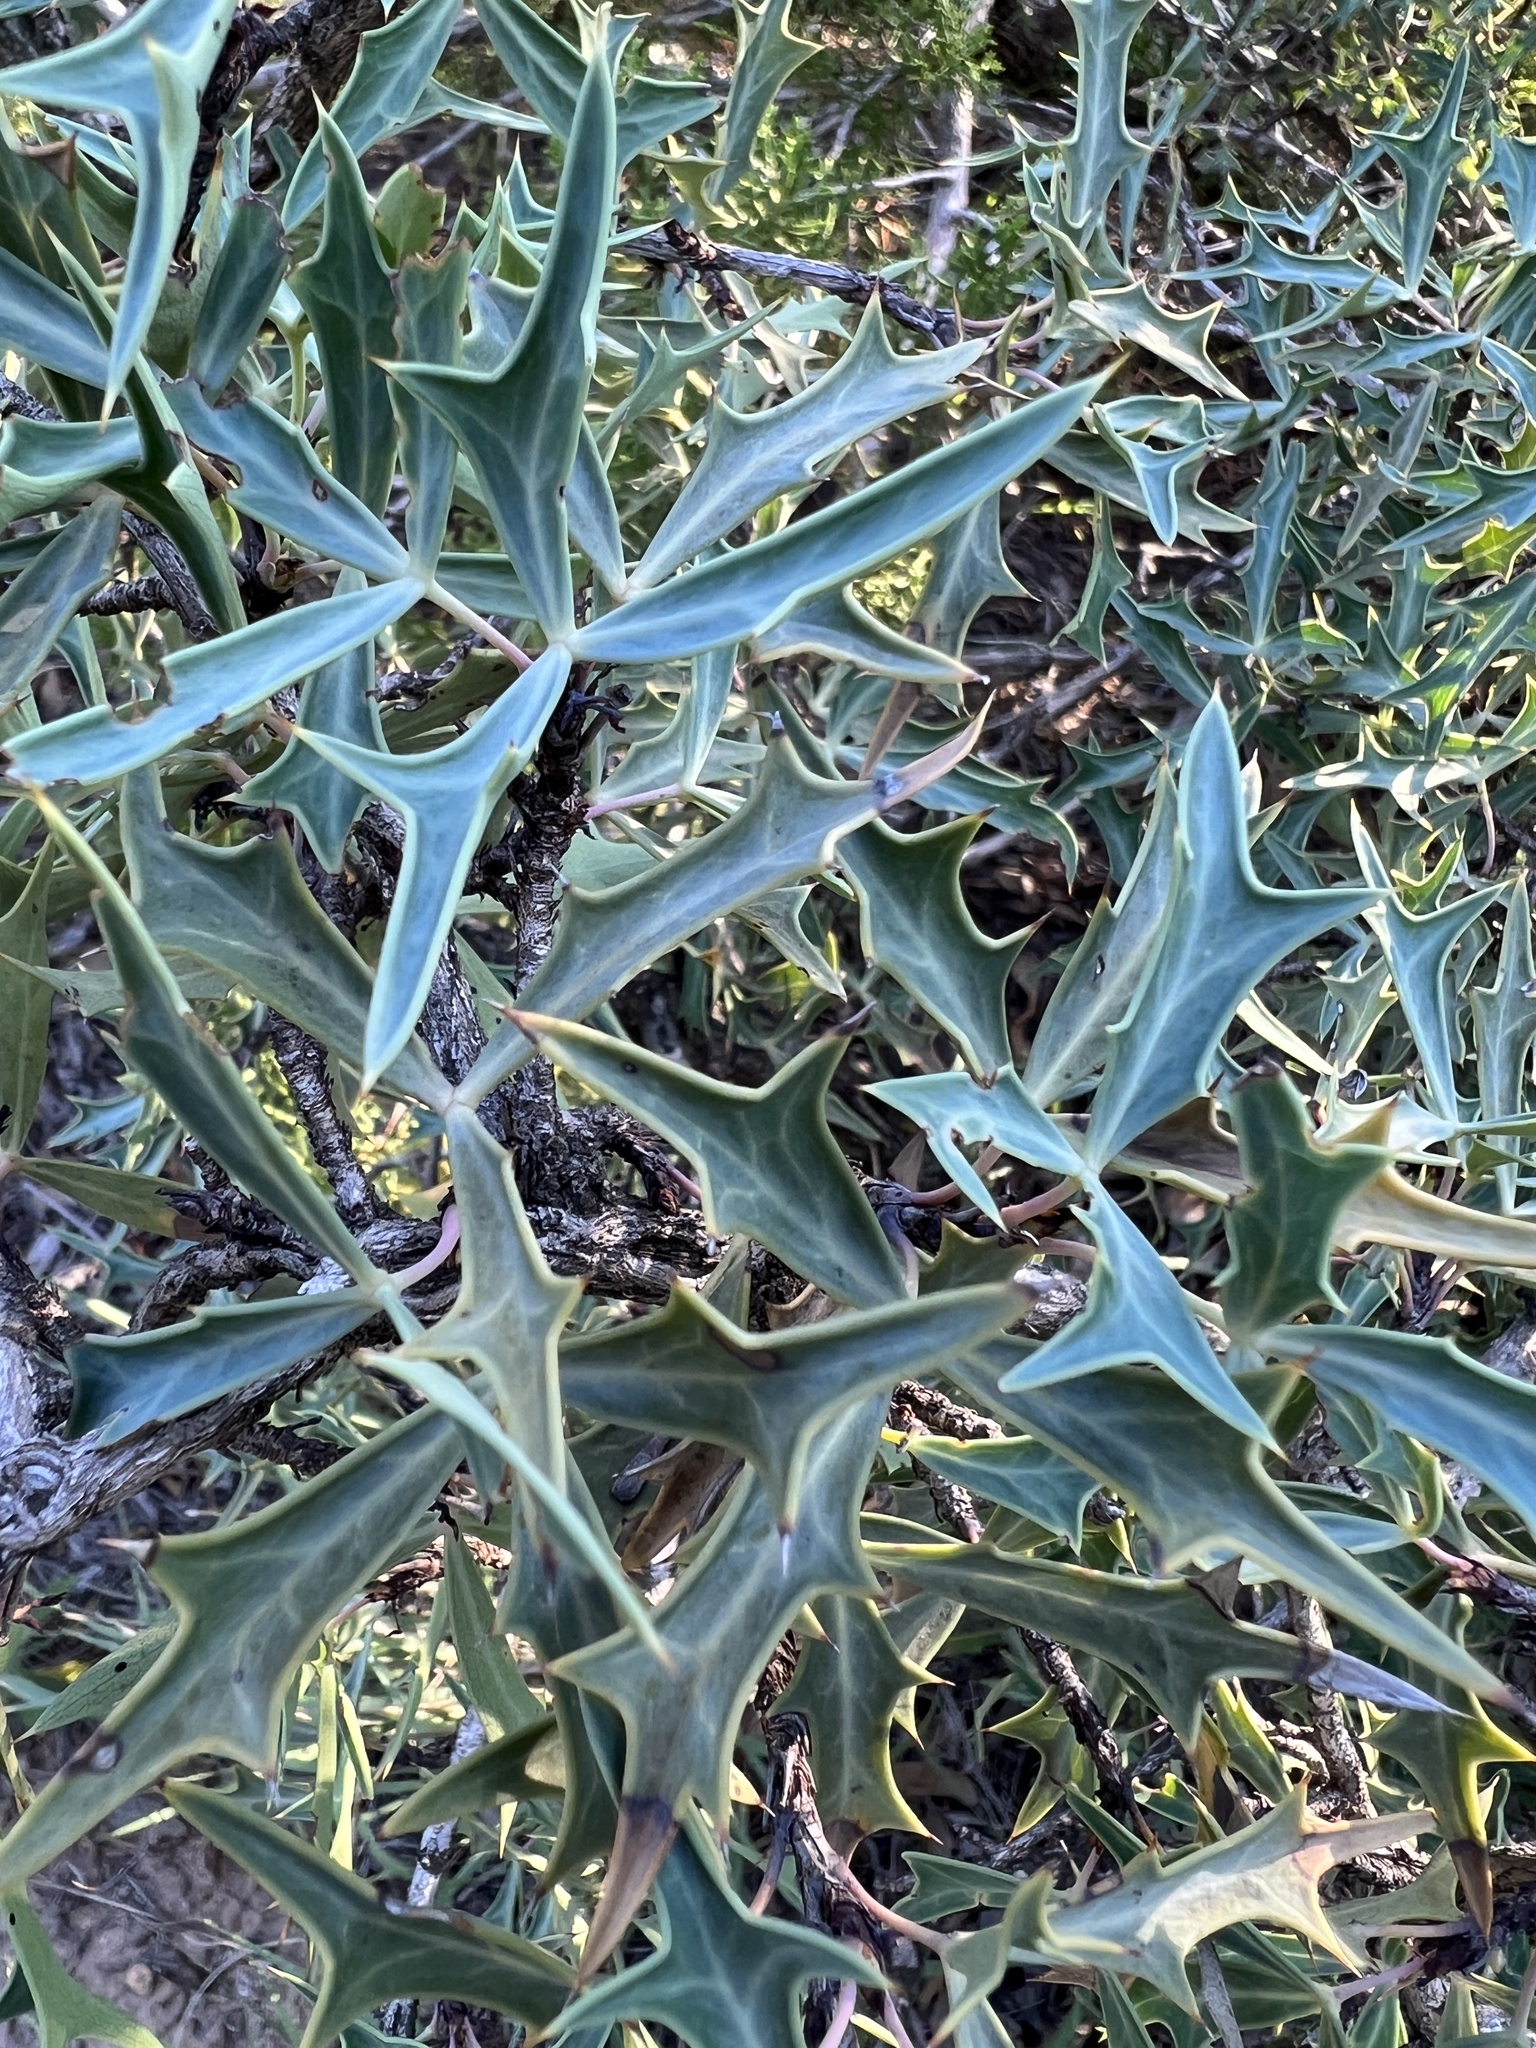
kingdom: Plantae
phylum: Tracheophyta
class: Magnoliopsida
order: Ranunculales
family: Berberidaceae
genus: Alloberberis
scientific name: Alloberberis trifoliolata
